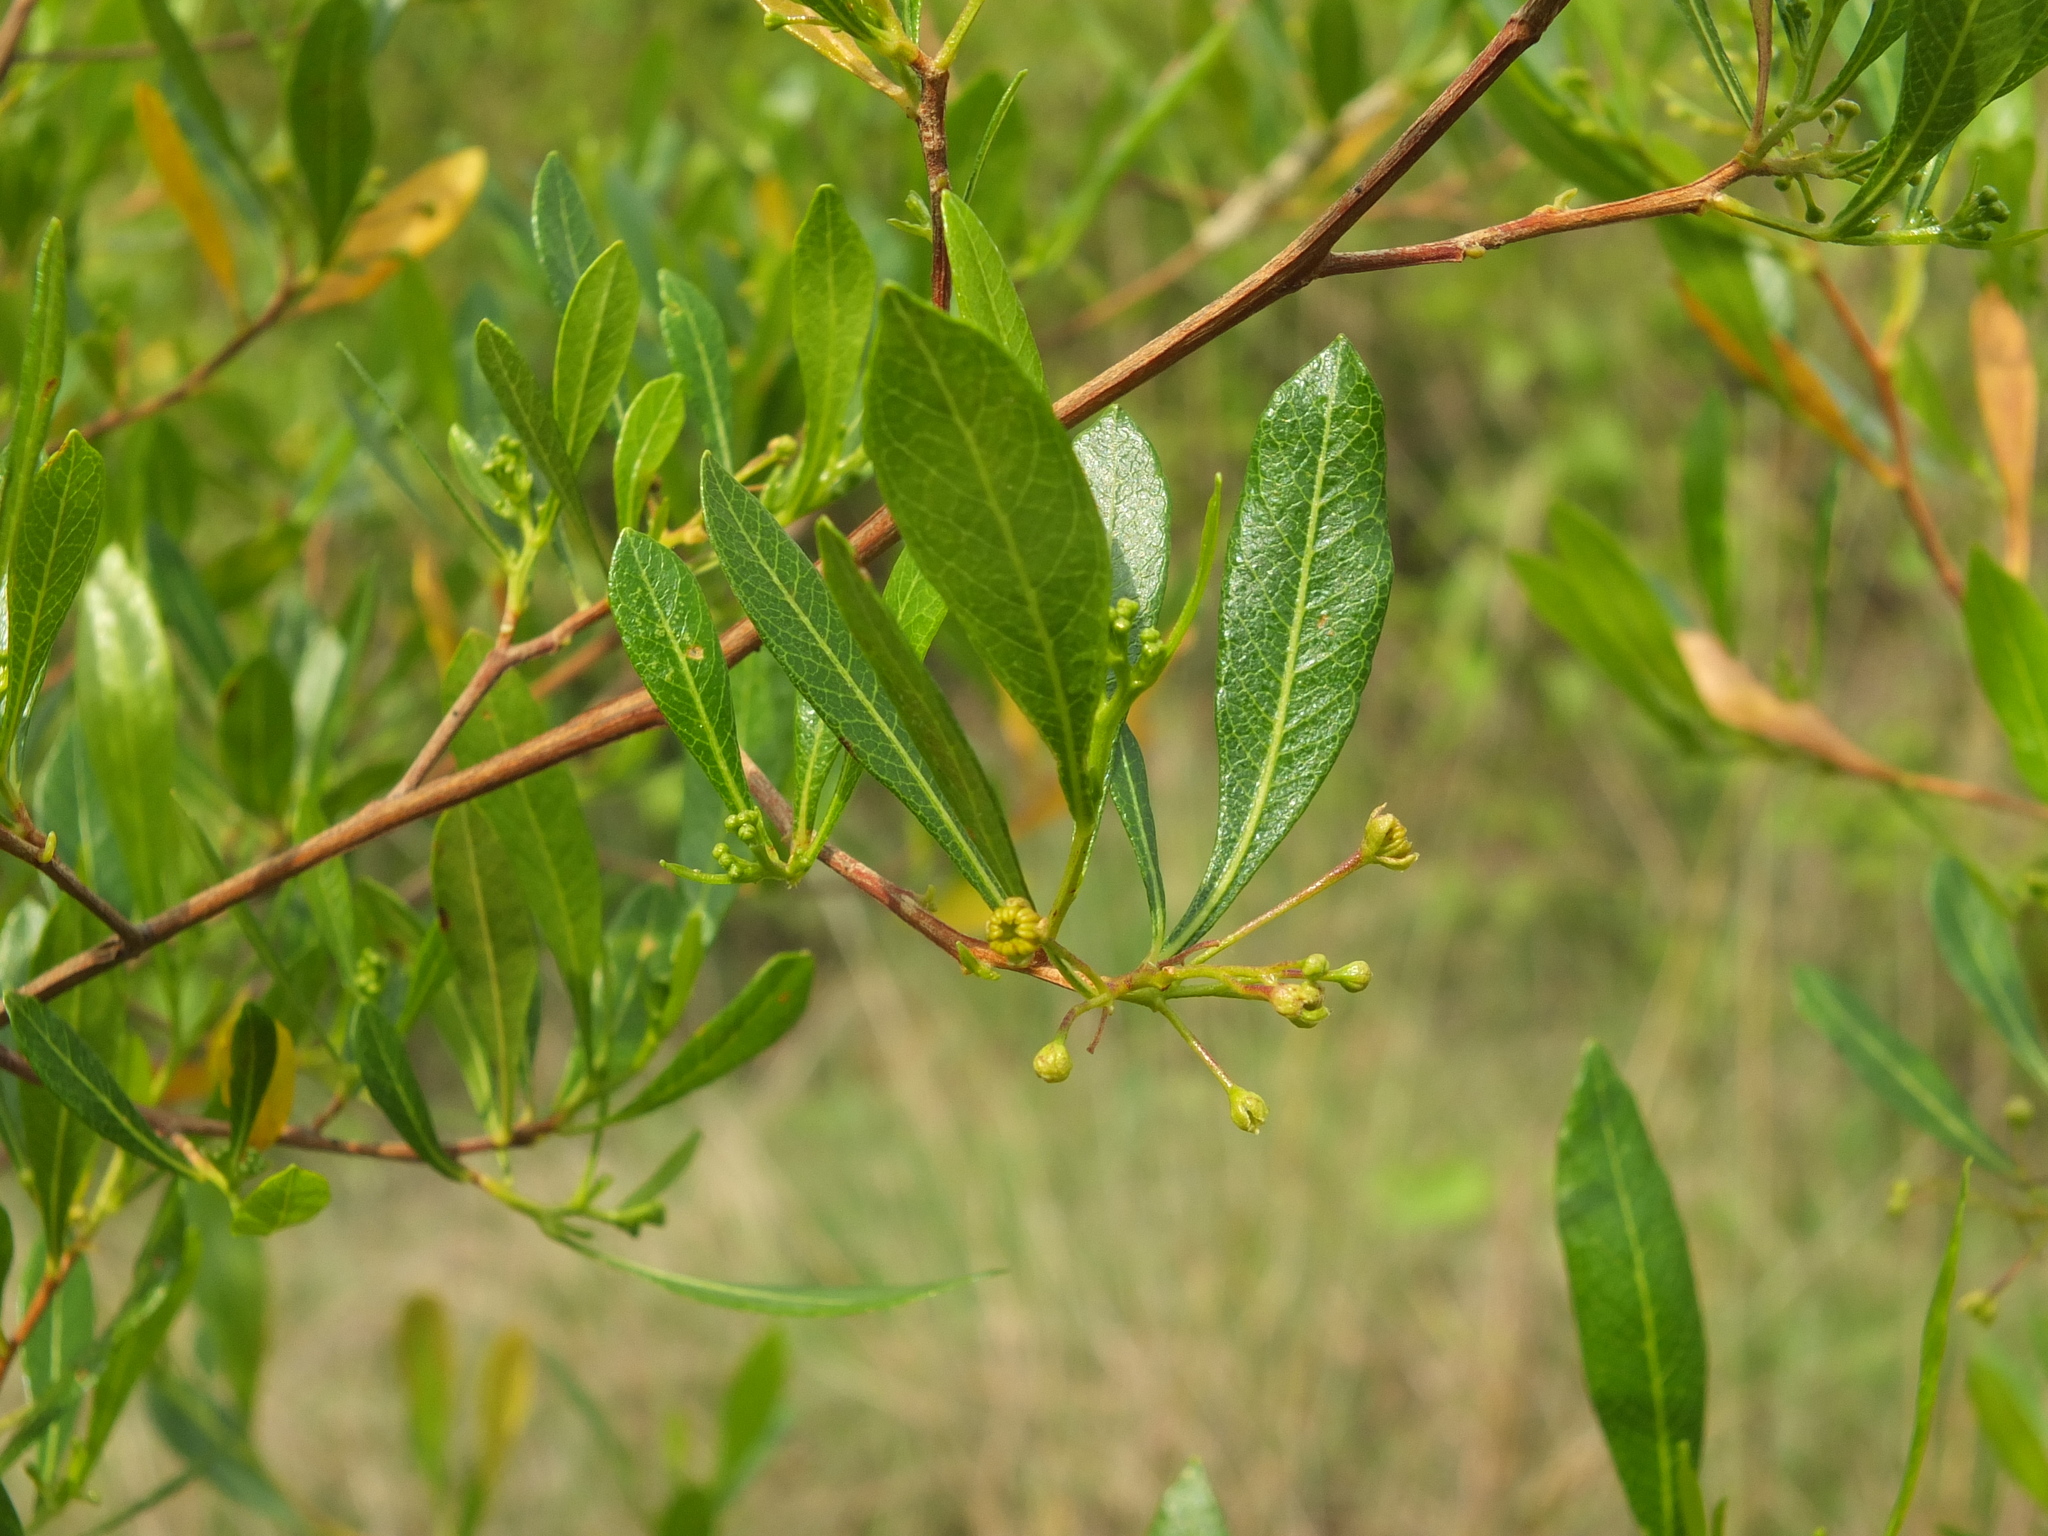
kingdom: Plantae
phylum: Tracheophyta
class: Magnoliopsida
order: Sapindales
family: Sapindaceae
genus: Dodonaea
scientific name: Dodonaea viscosa
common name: Hopbush
